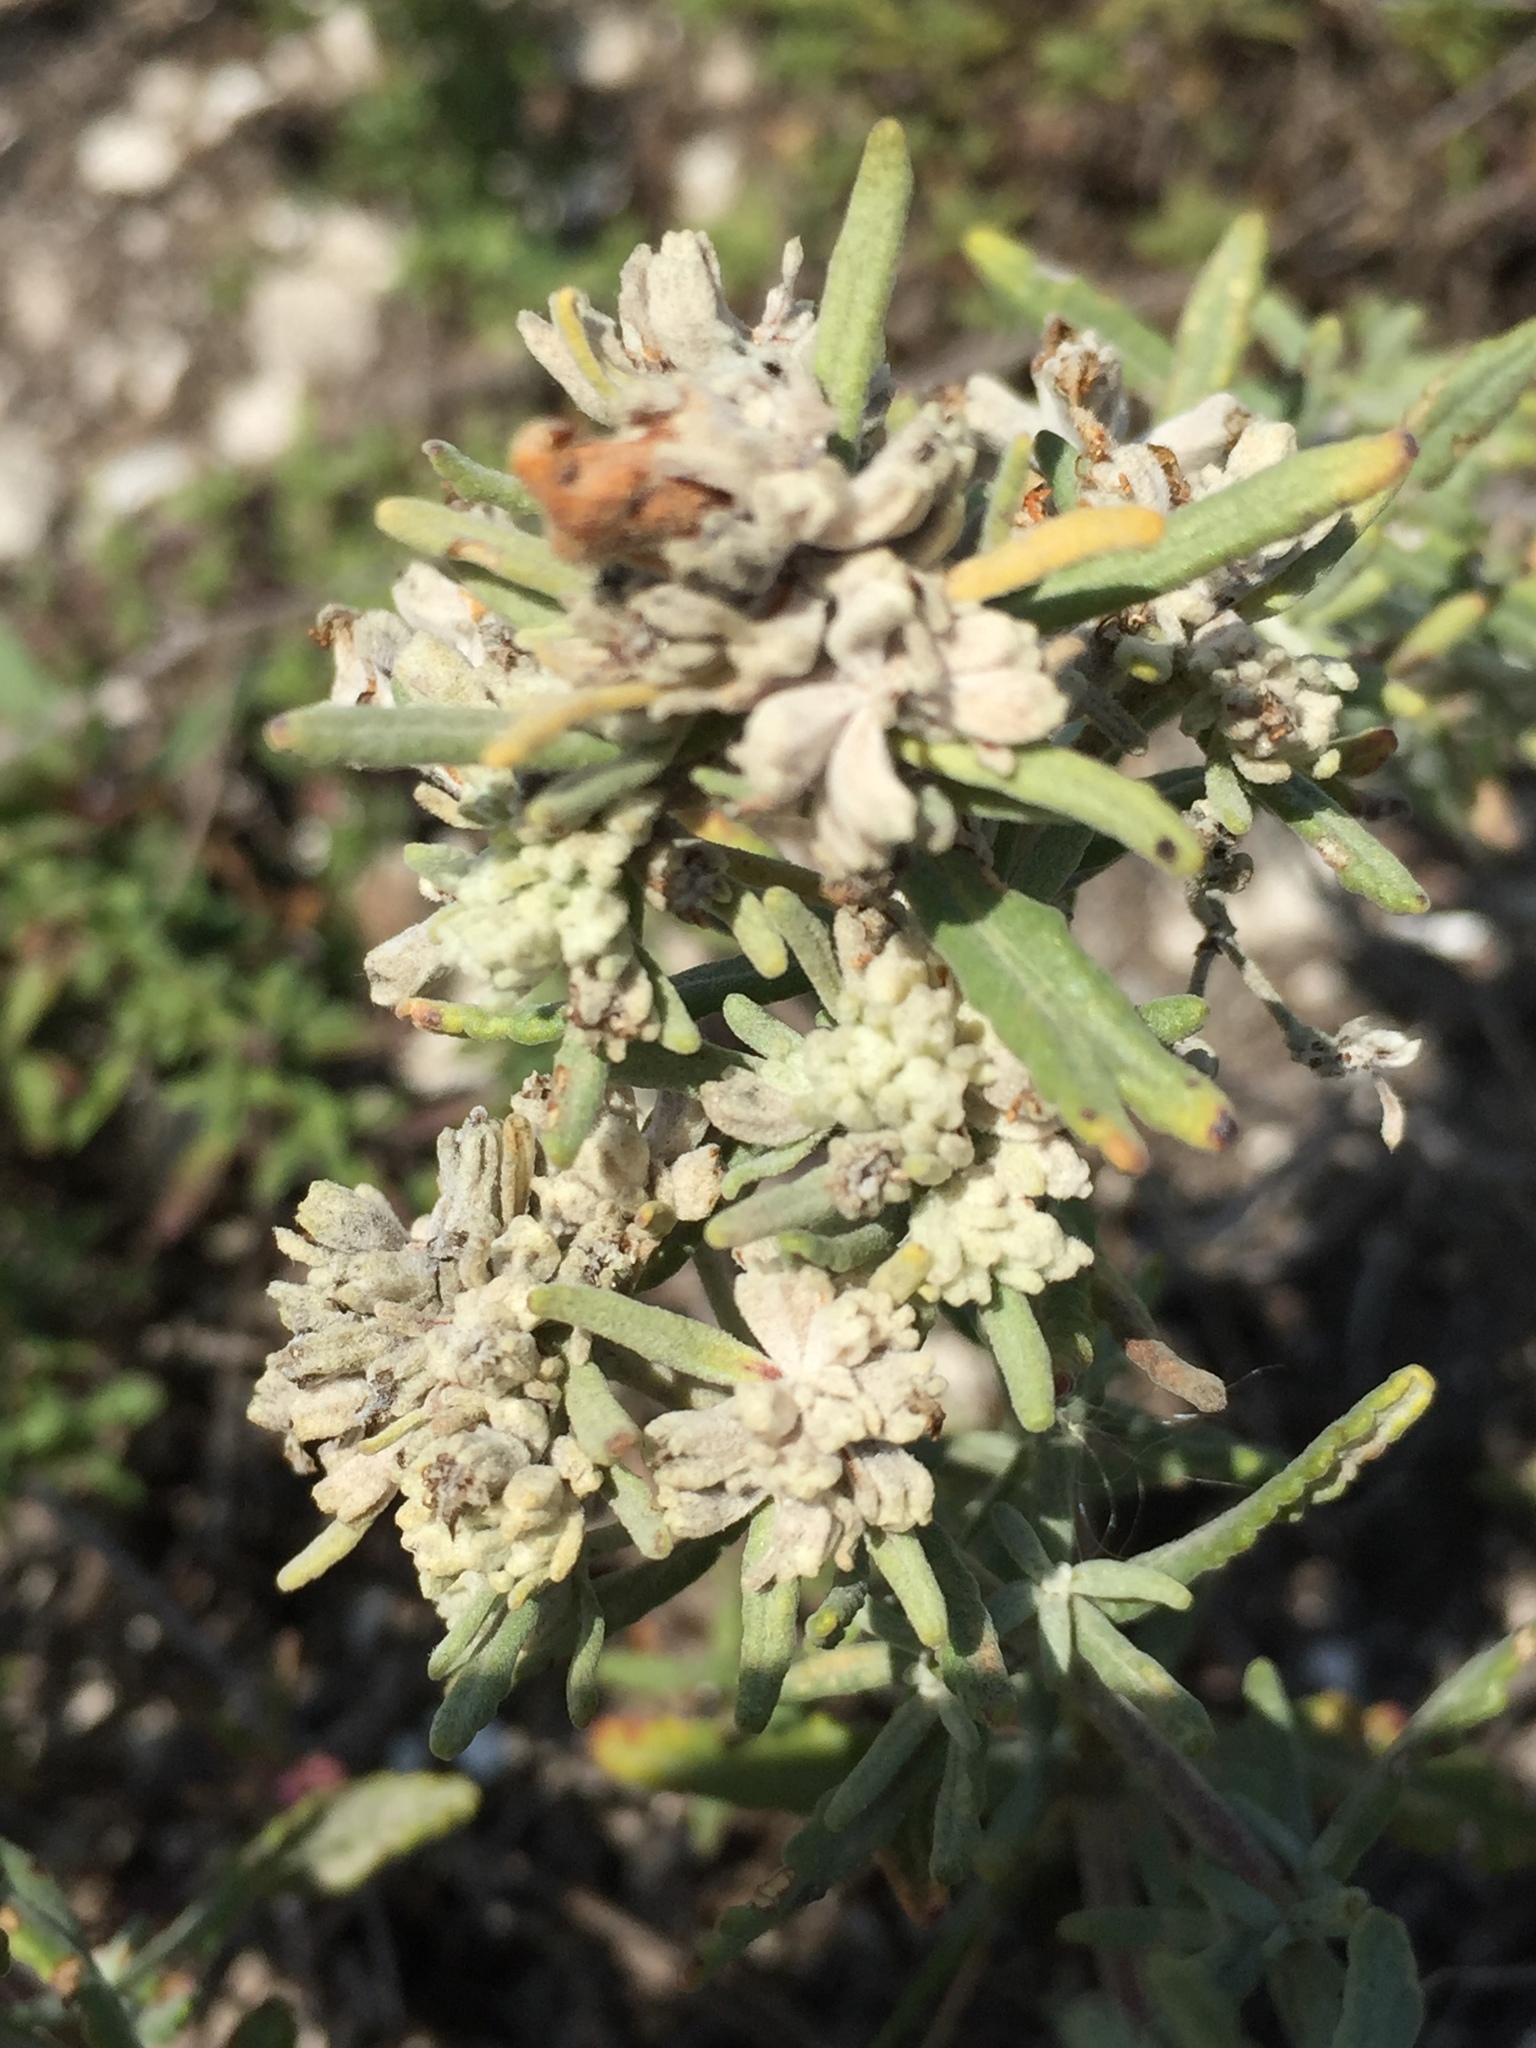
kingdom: Plantae
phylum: Tracheophyta
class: Magnoliopsida
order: Lamiales
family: Lamiaceae
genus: Teucrium
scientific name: Teucrium polium
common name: Poley
